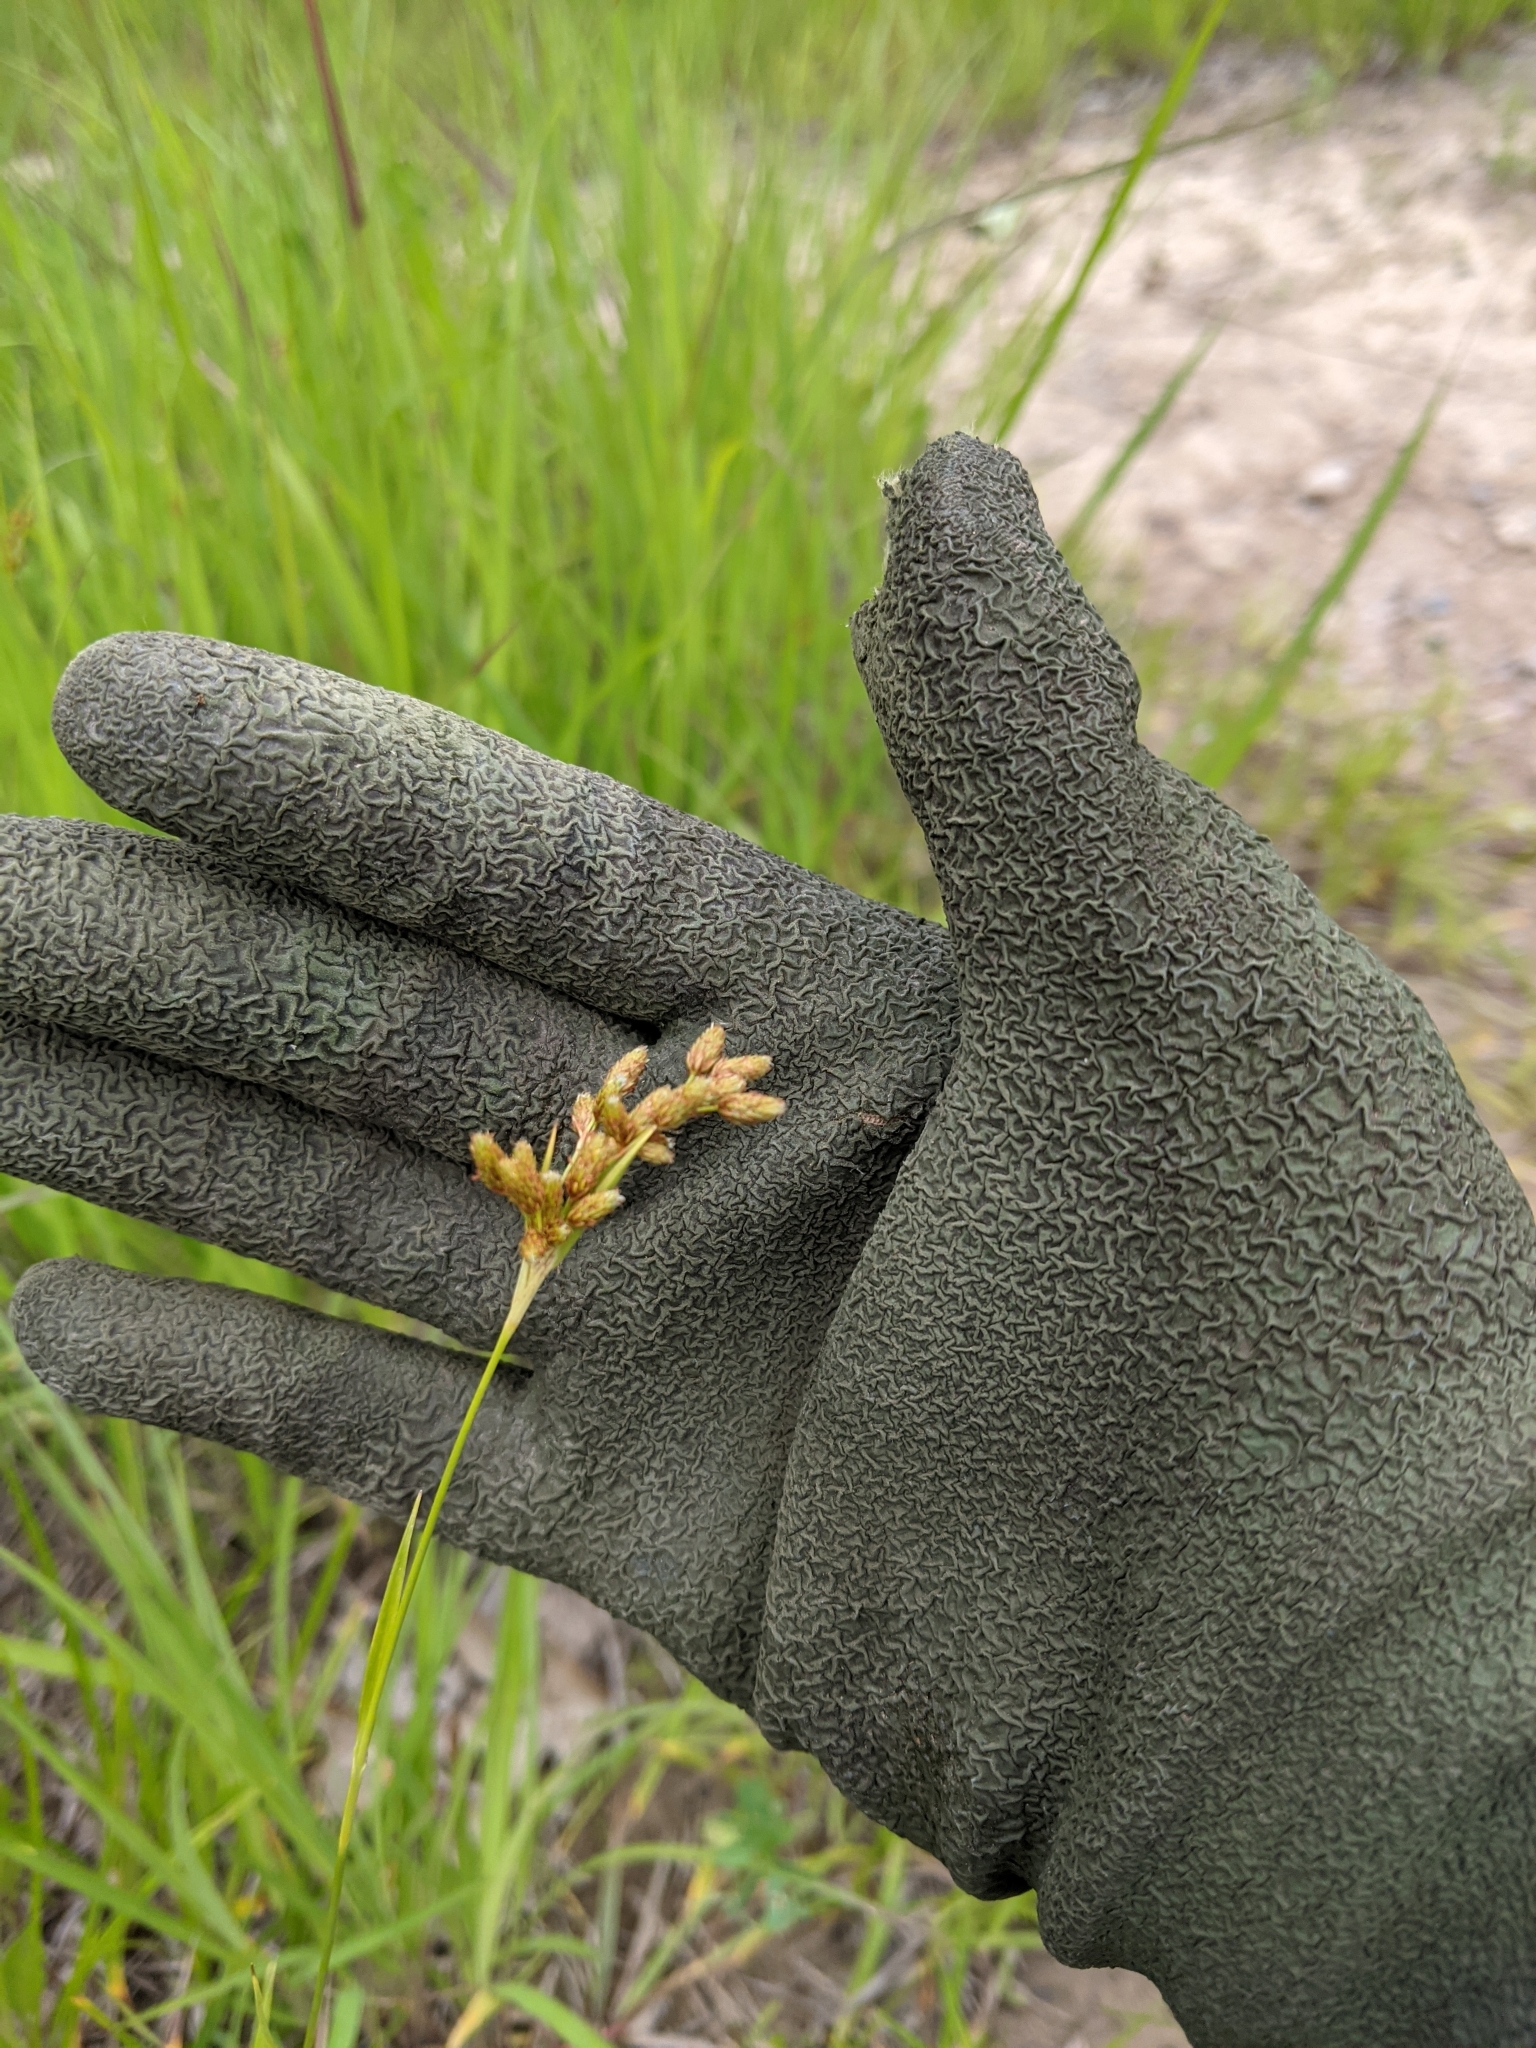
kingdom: Plantae
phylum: Tracheophyta
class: Liliopsida
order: Poales
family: Cyperaceae
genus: Scirpus
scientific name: Scirpus pendulus
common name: Nodding bulrush
